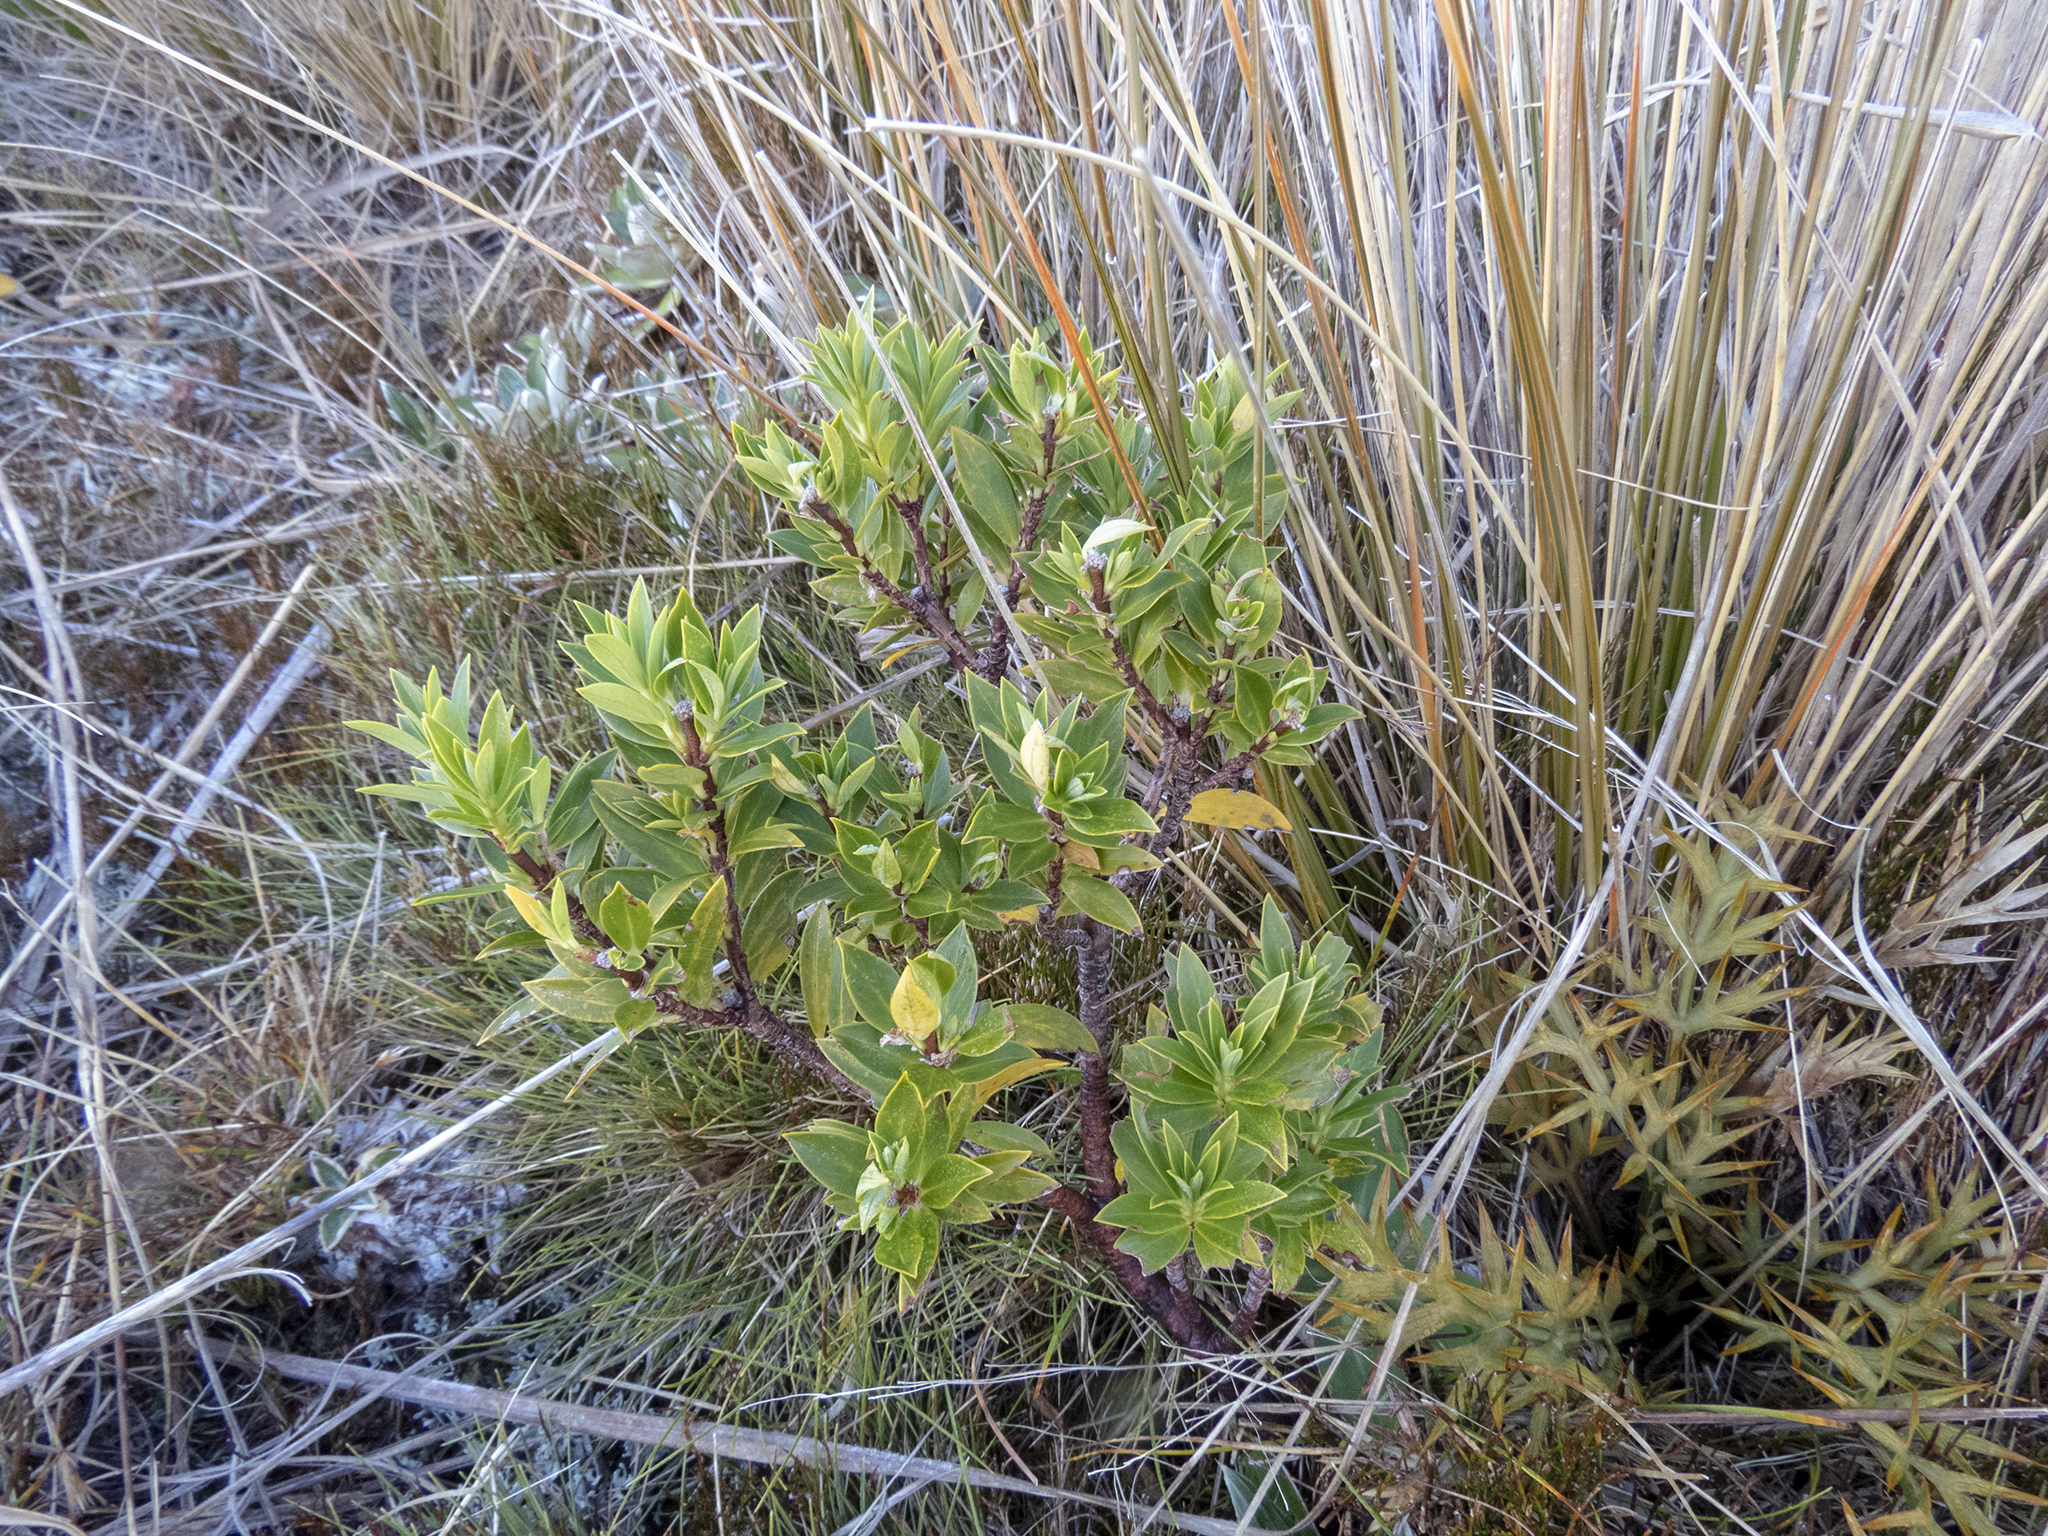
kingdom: Plantae
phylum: Tracheophyta
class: Magnoliopsida
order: Malvales
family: Thymelaeaceae
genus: Pimelea
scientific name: Pimelea gnidia
